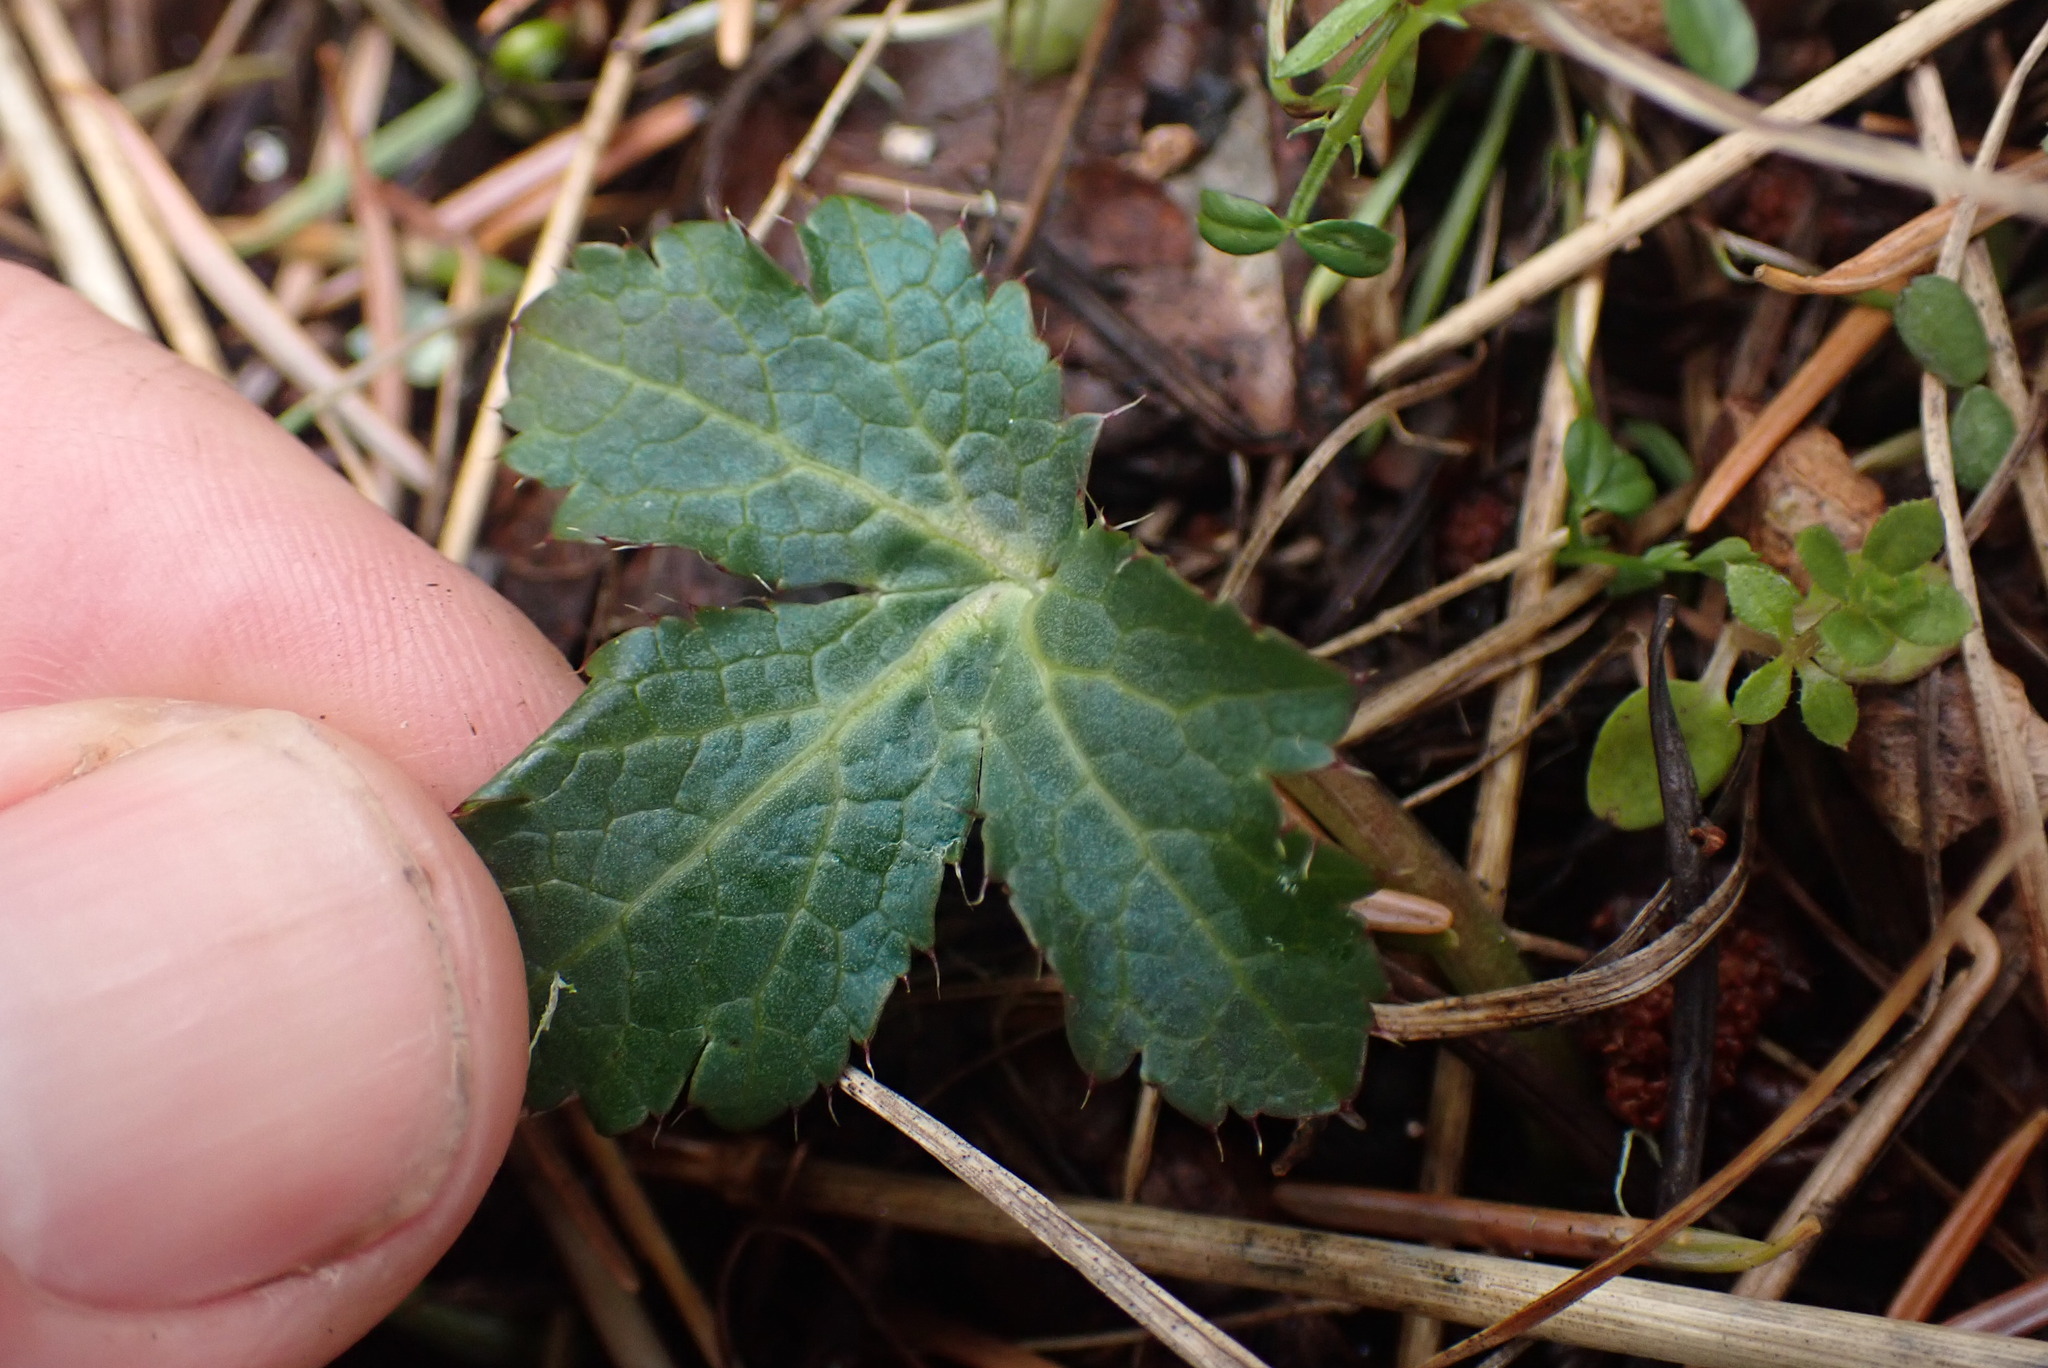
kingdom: Plantae
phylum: Tracheophyta
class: Magnoliopsida
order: Apiales
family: Apiaceae
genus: Sanicula
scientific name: Sanicula crassicaulis
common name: Western snakeroot
